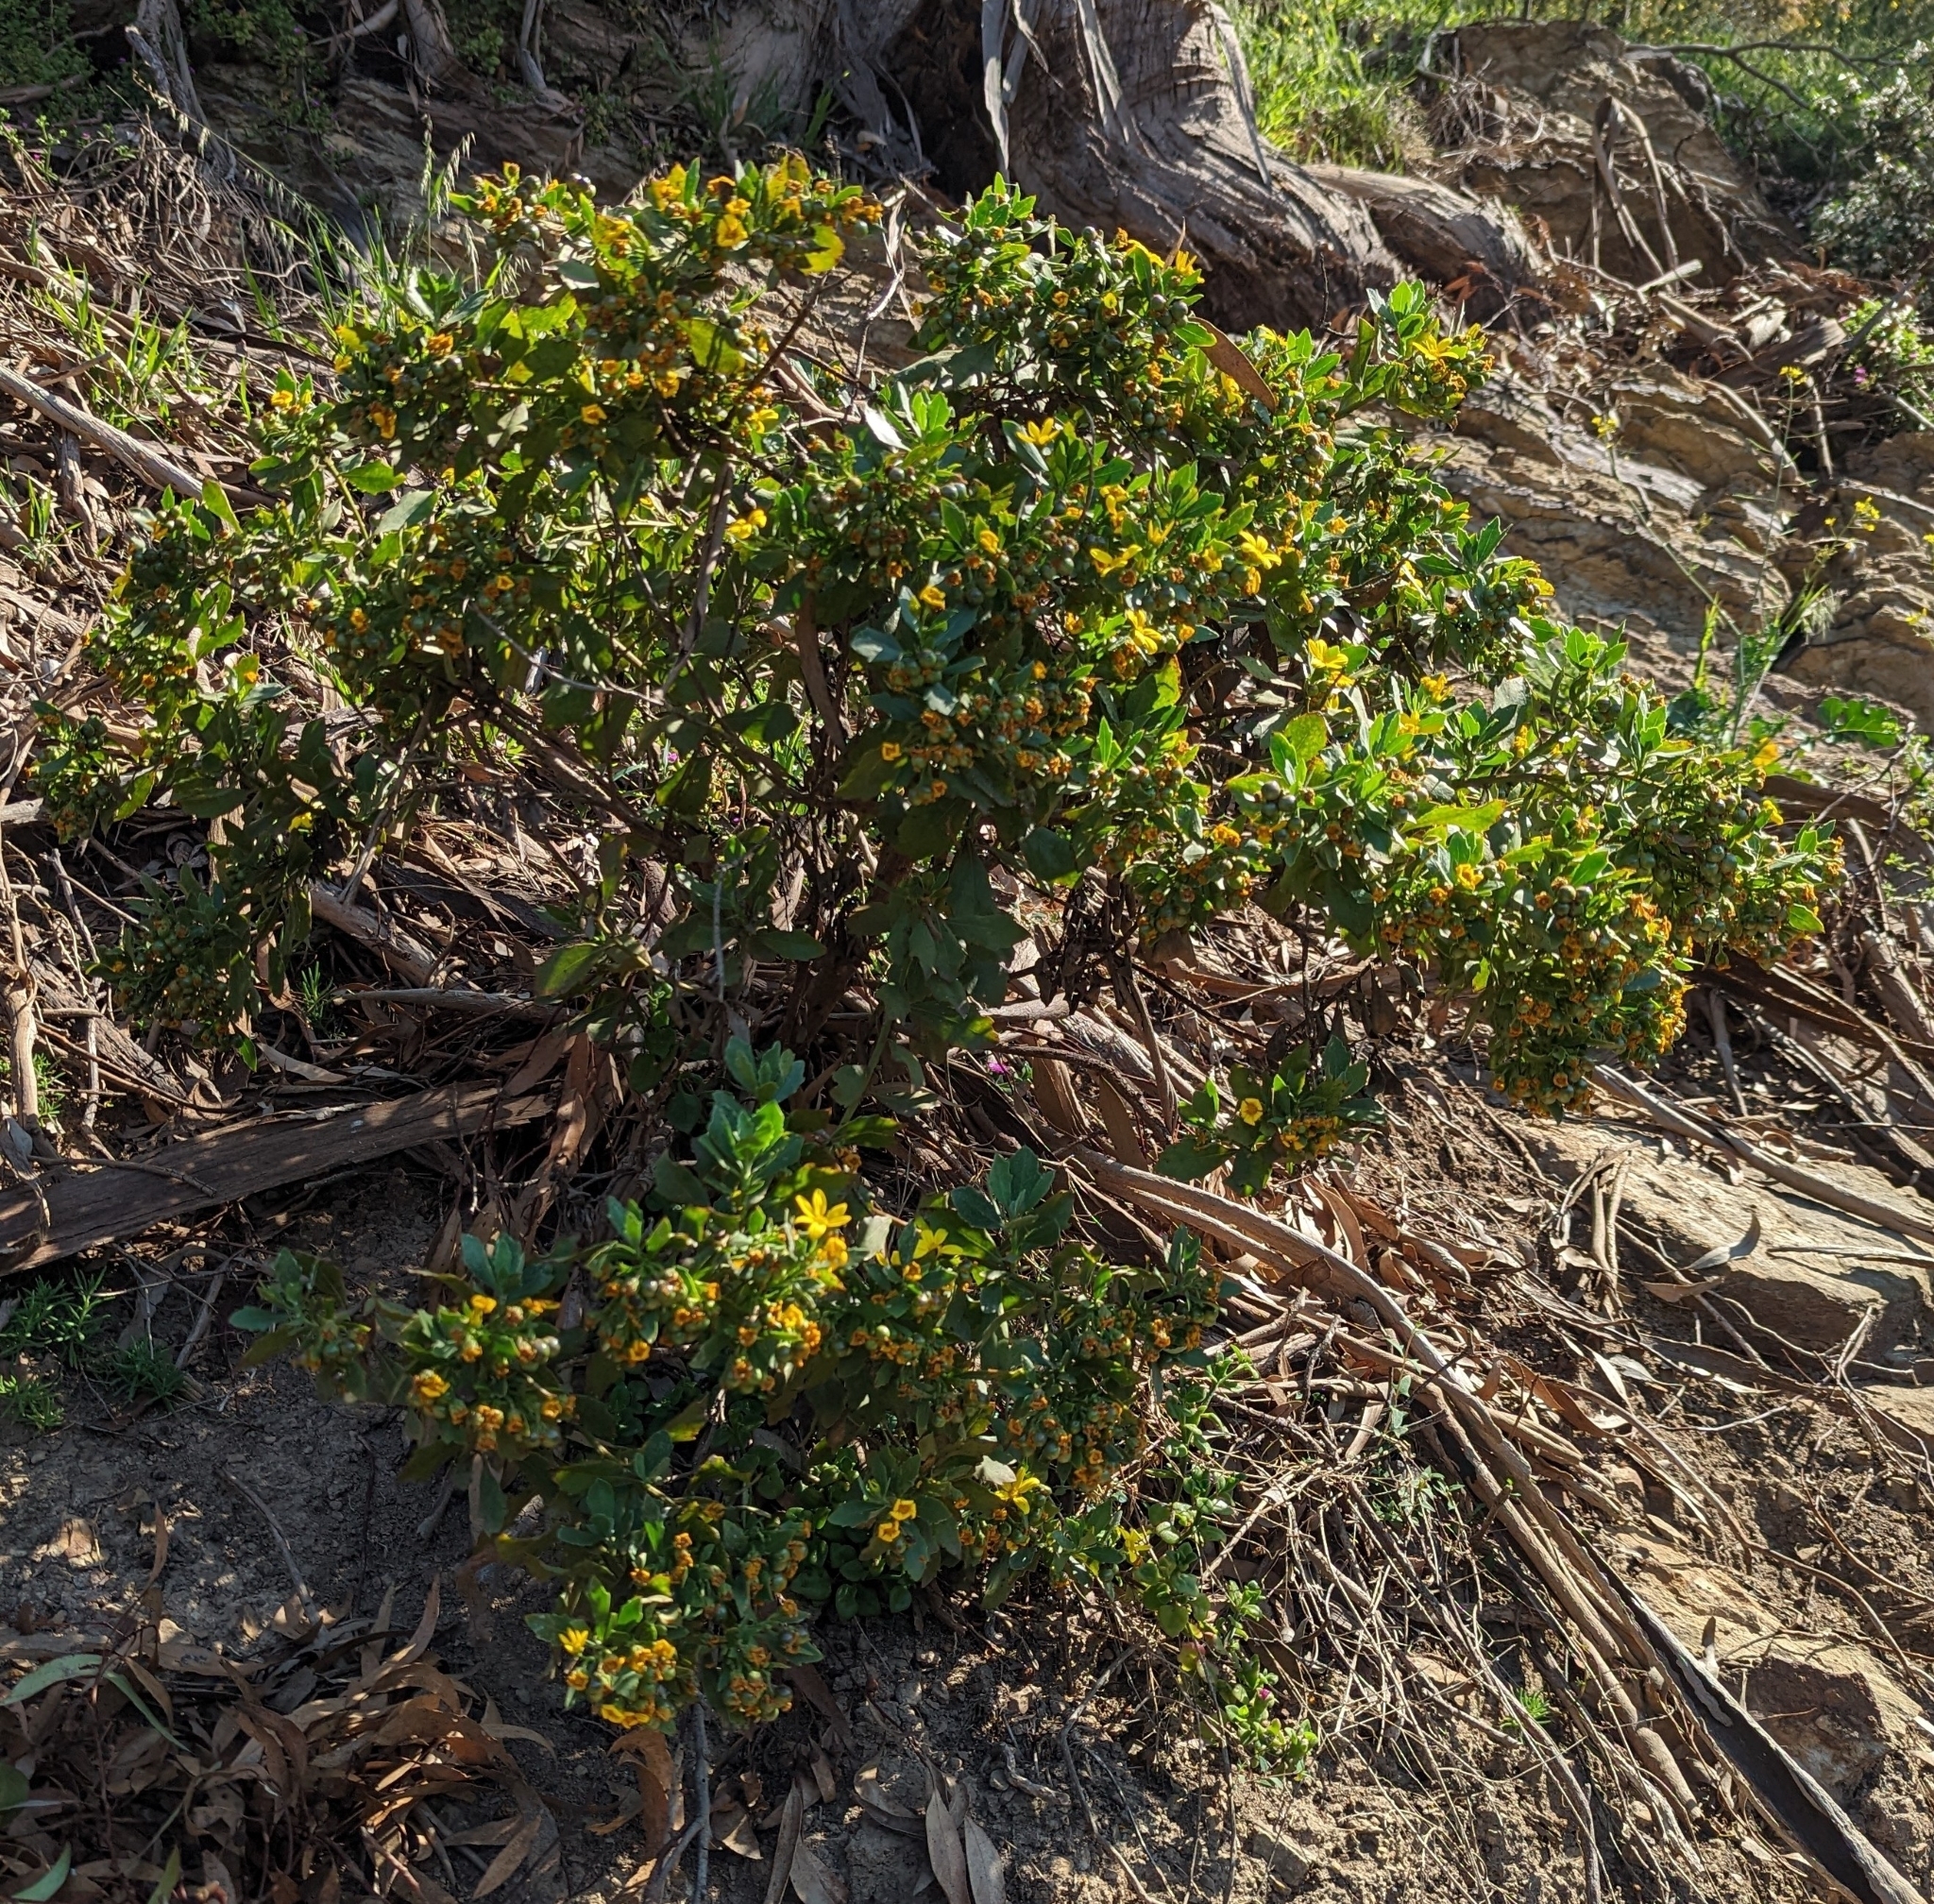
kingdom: Plantae
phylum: Tracheophyta
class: Magnoliopsida
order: Asterales
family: Asteraceae
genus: Osteospermum
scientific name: Osteospermum moniliferum
